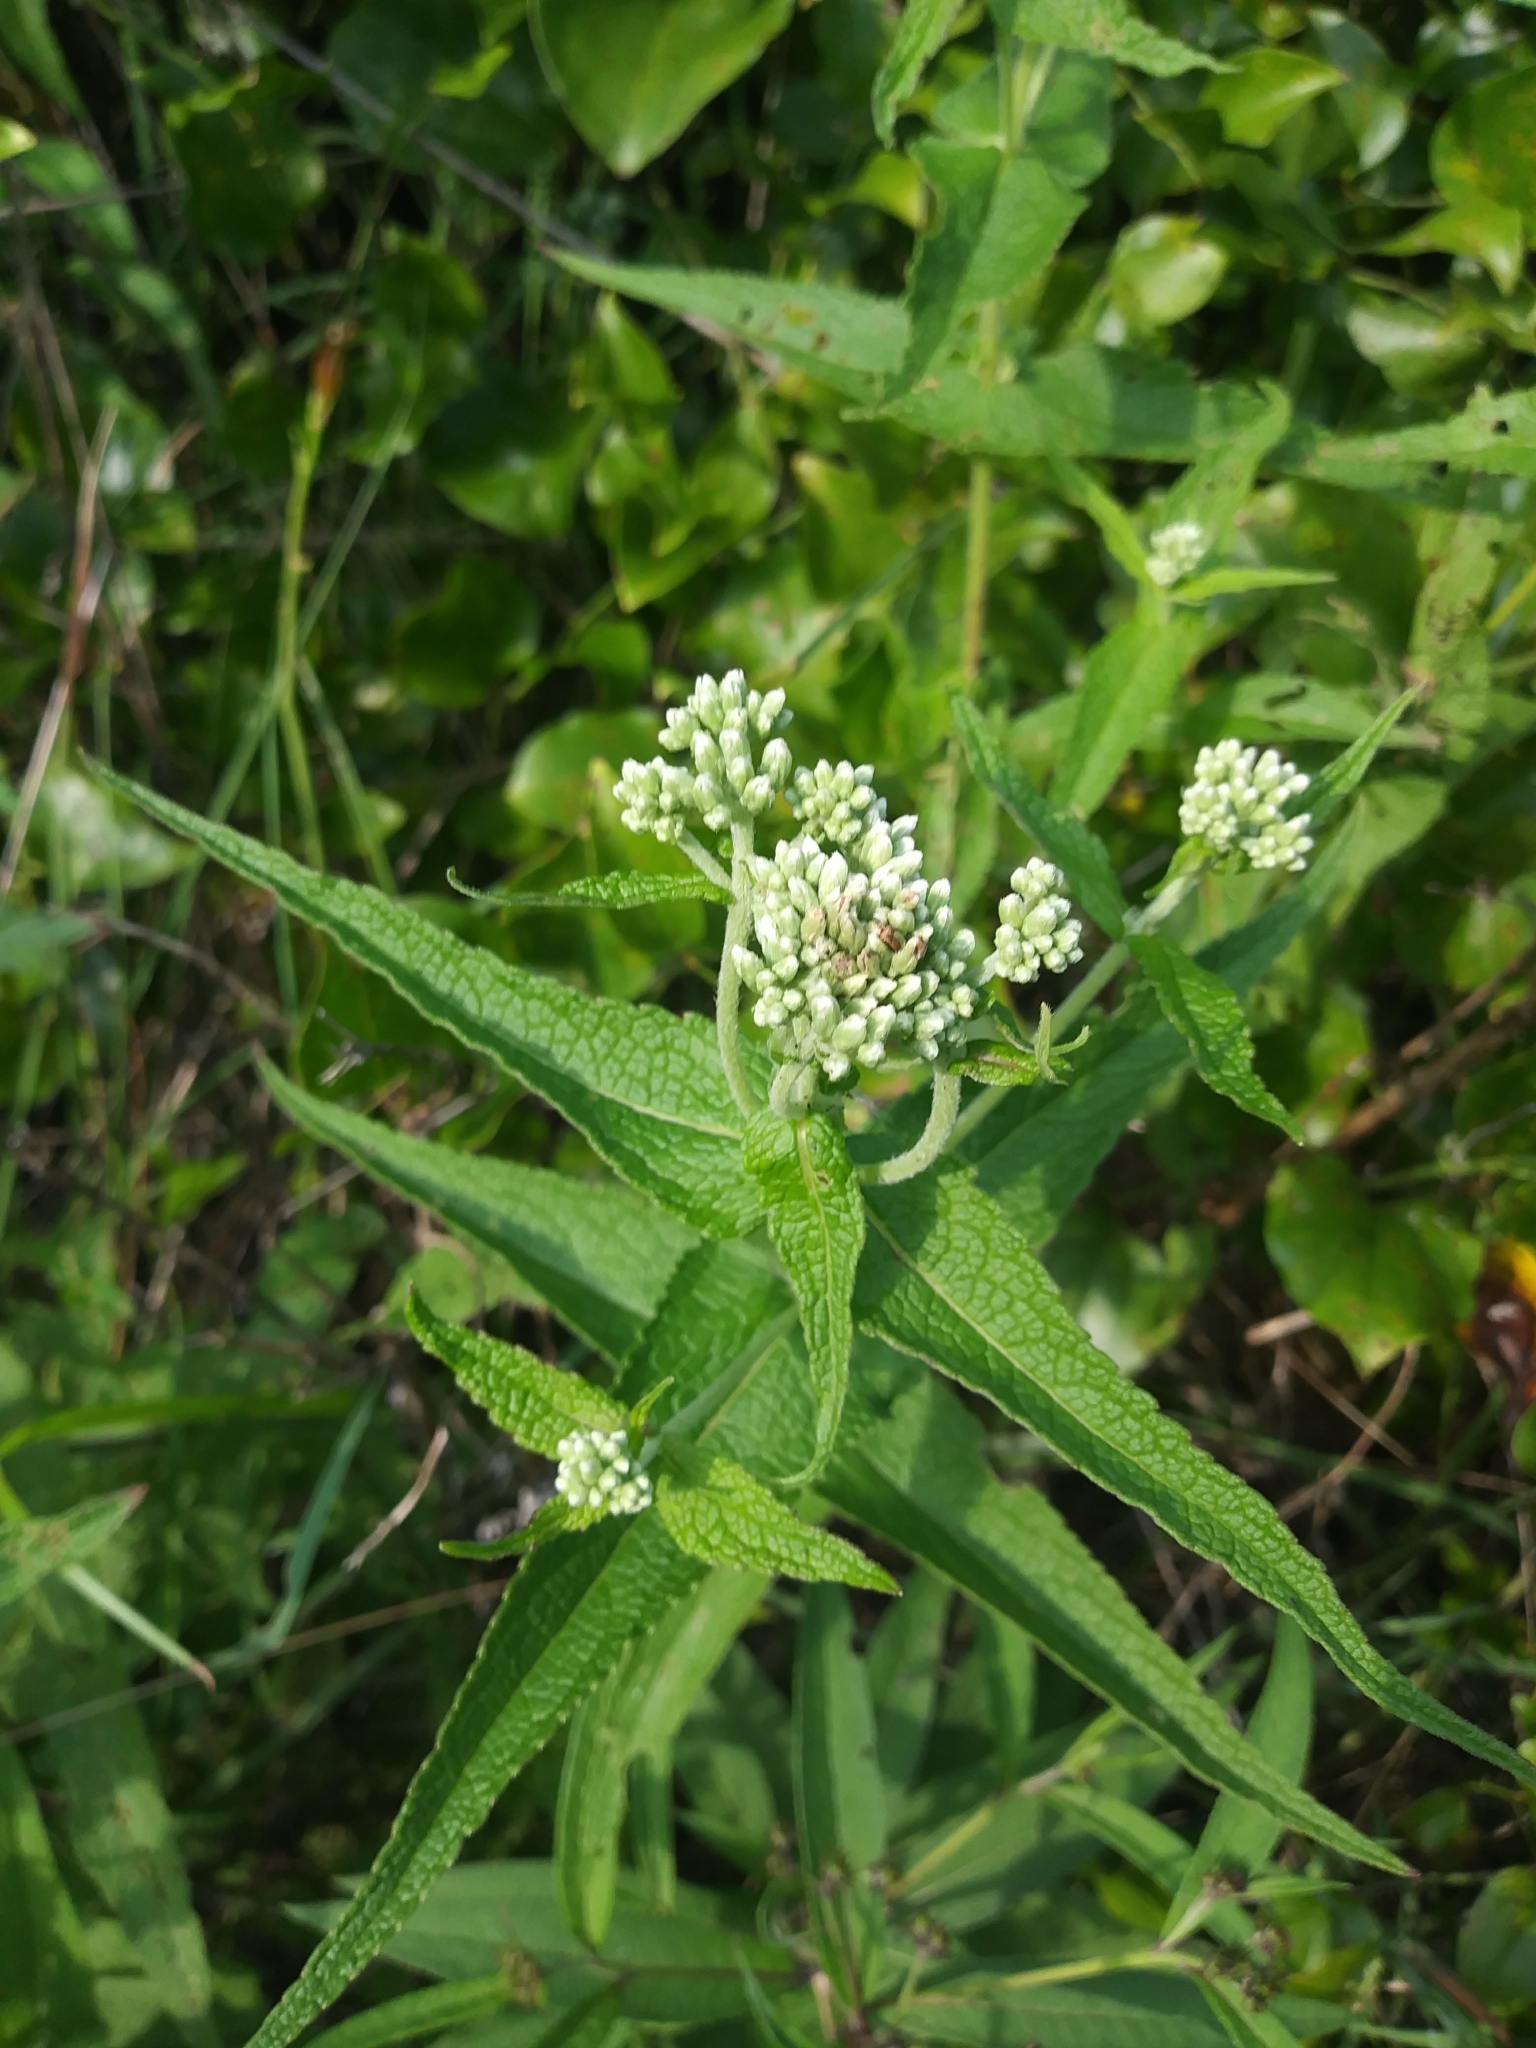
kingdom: Plantae
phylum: Tracheophyta
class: Magnoliopsida
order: Asterales
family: Asteraceae
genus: Eupatorium
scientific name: Eupatorium perfoliatum
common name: Boneset
